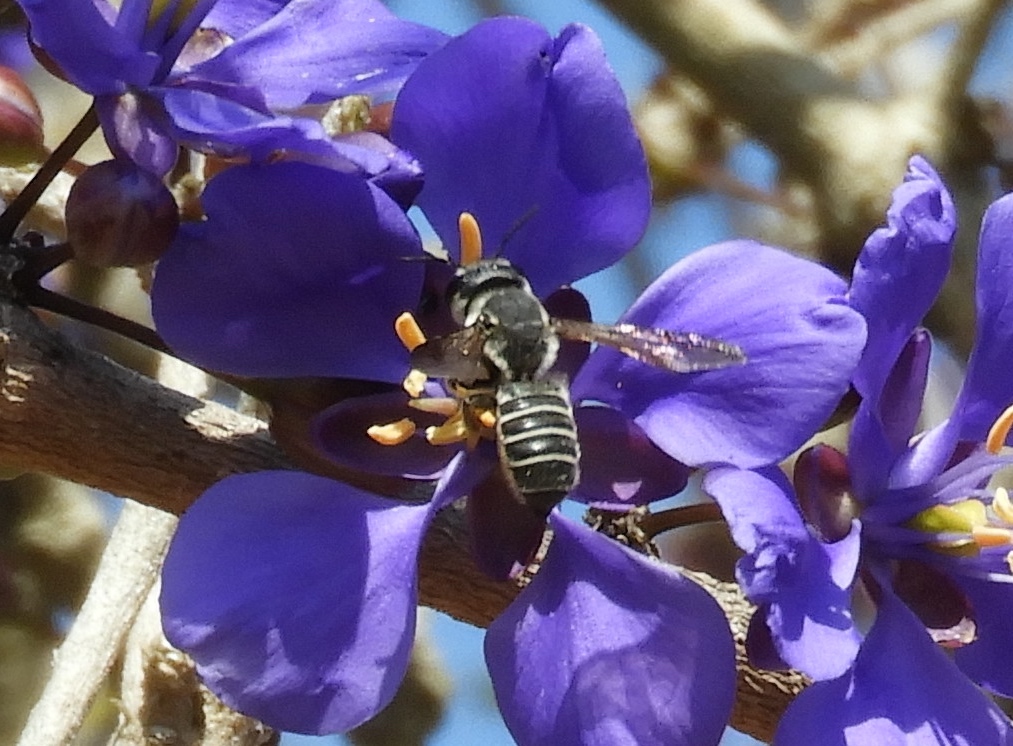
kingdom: Animalia
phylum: Arthropoda
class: Insecta
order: Hymenoptera
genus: Sayapis
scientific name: Sayapis
